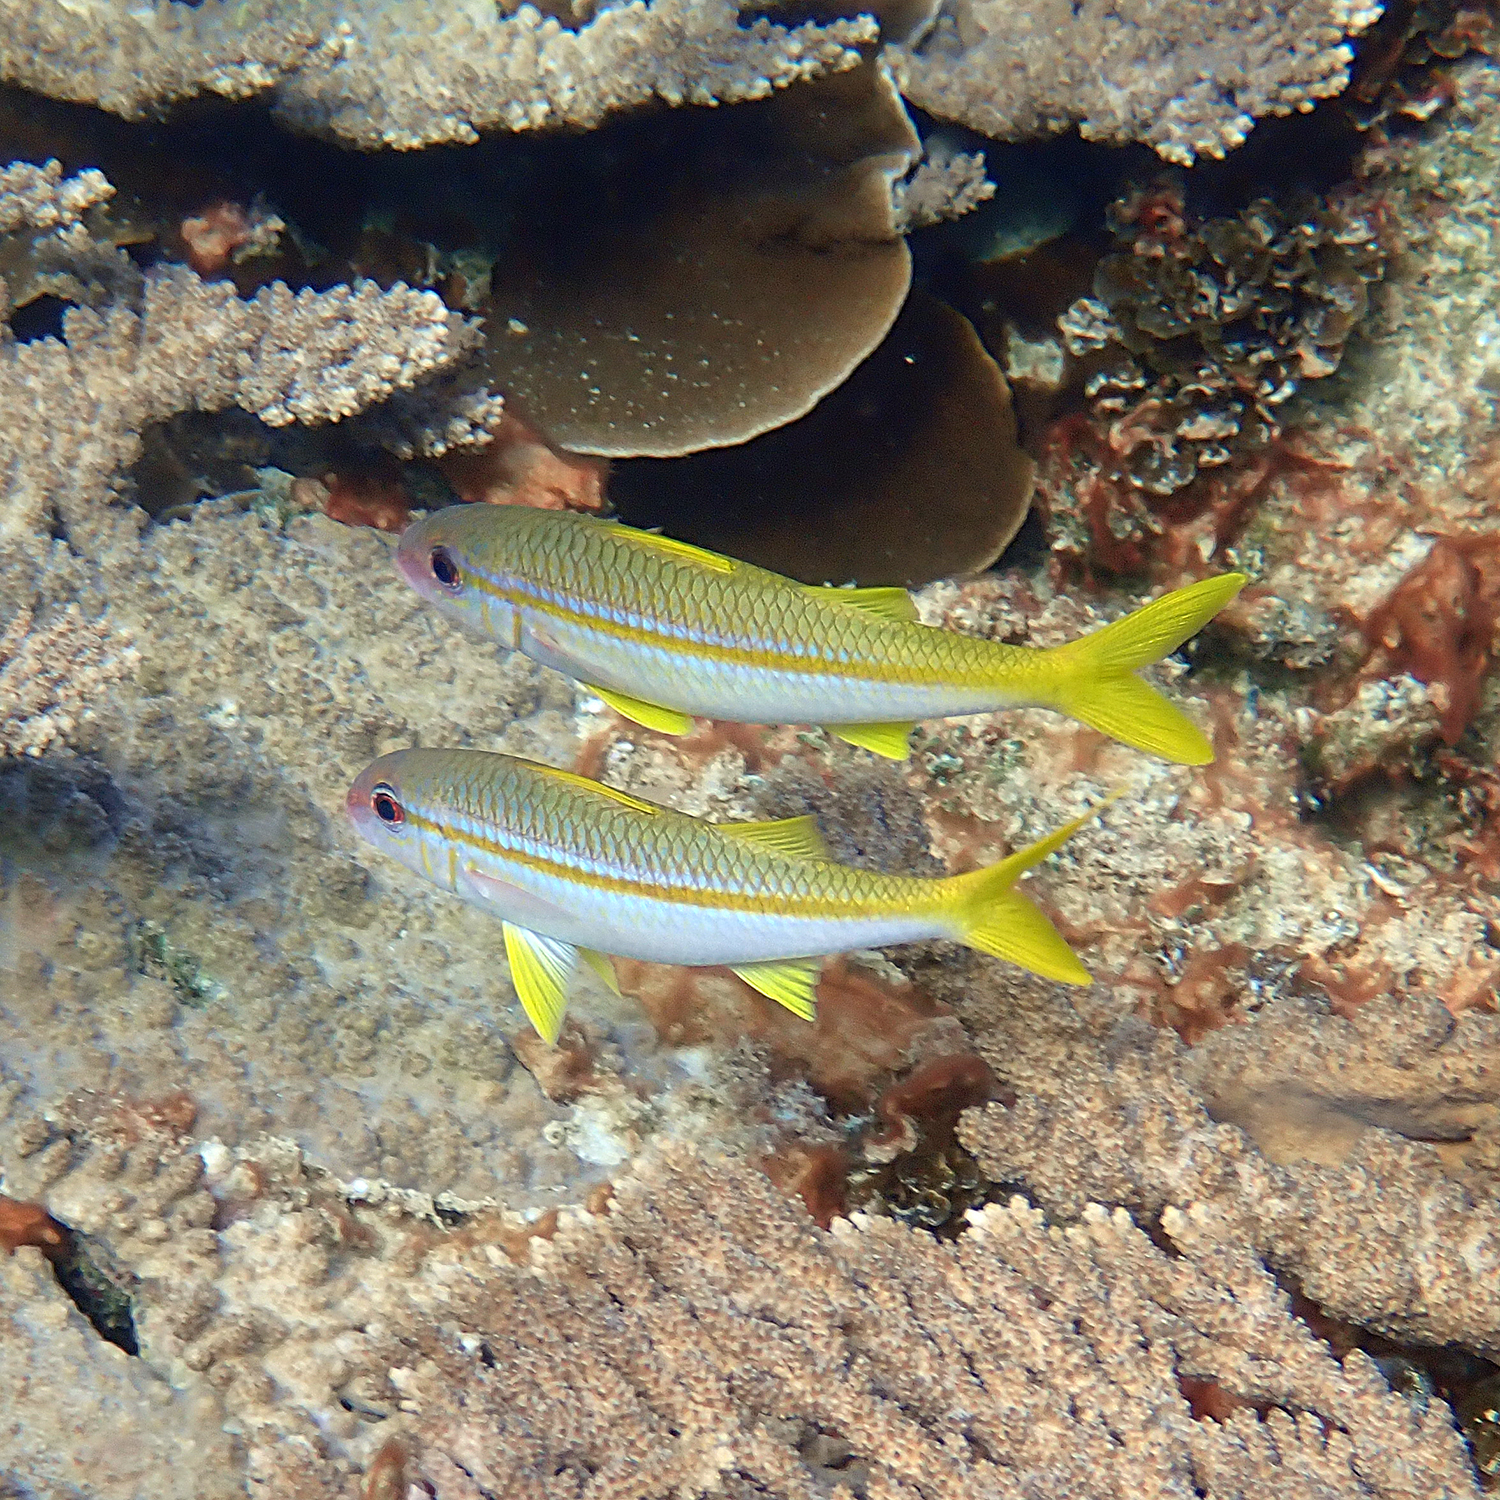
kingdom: Animalia
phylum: Chordata
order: Perciformes
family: Mullidae
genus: Mulloidichthys
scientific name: Mulloidichthys vanicolensis
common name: Yellowfin goatfish
